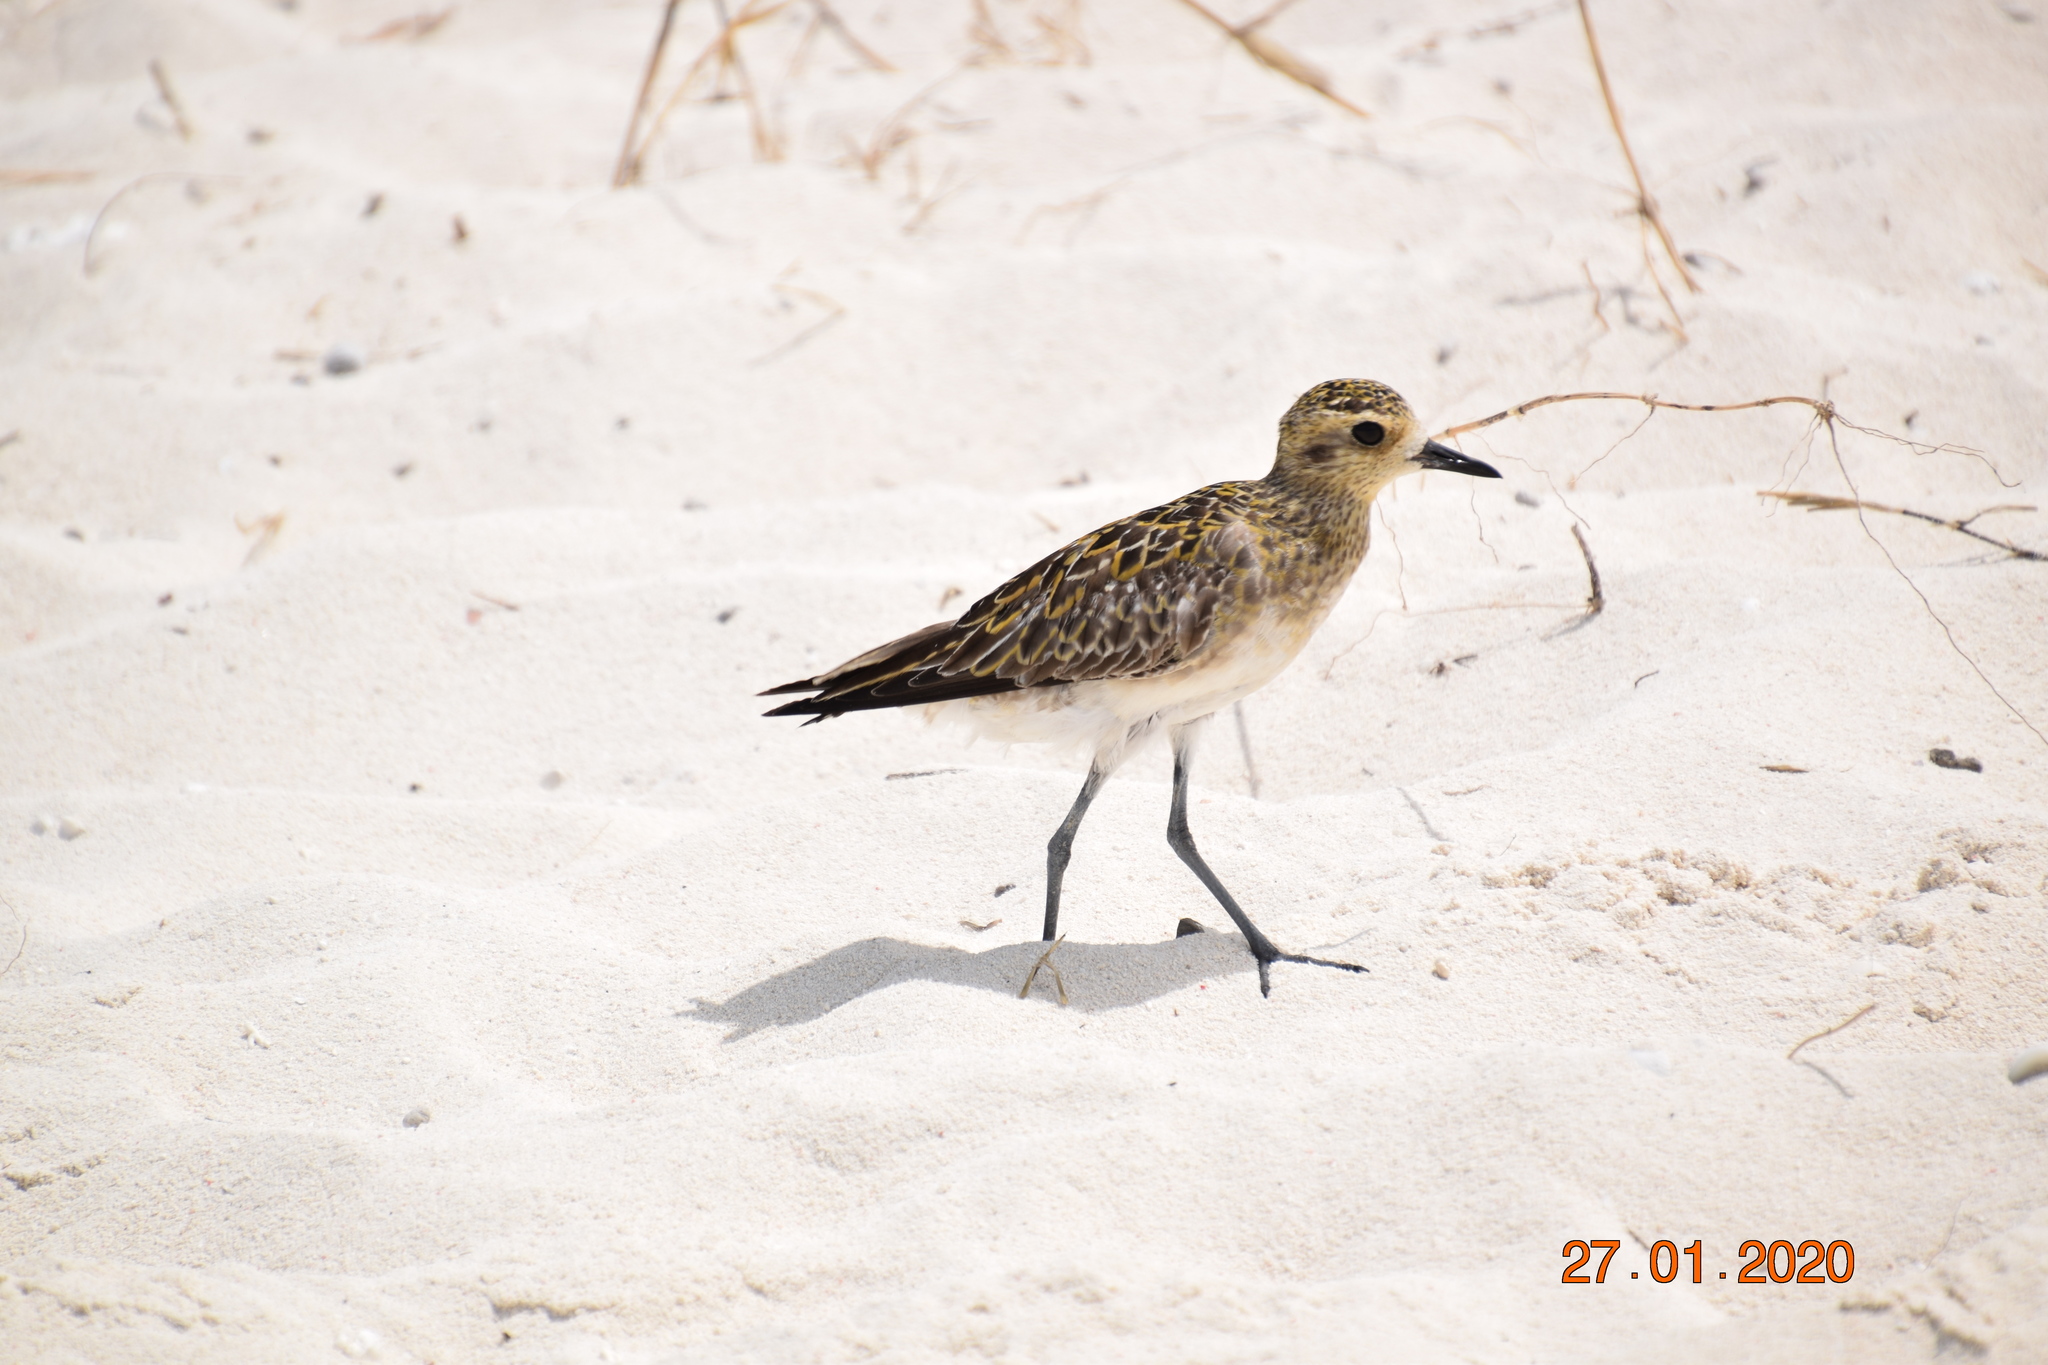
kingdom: Animalia
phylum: Chordata
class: Aves
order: Charadriiformes
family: Charadriidae
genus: Pluvialis
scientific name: Pluvialis fulva
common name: Pacific golden plover
